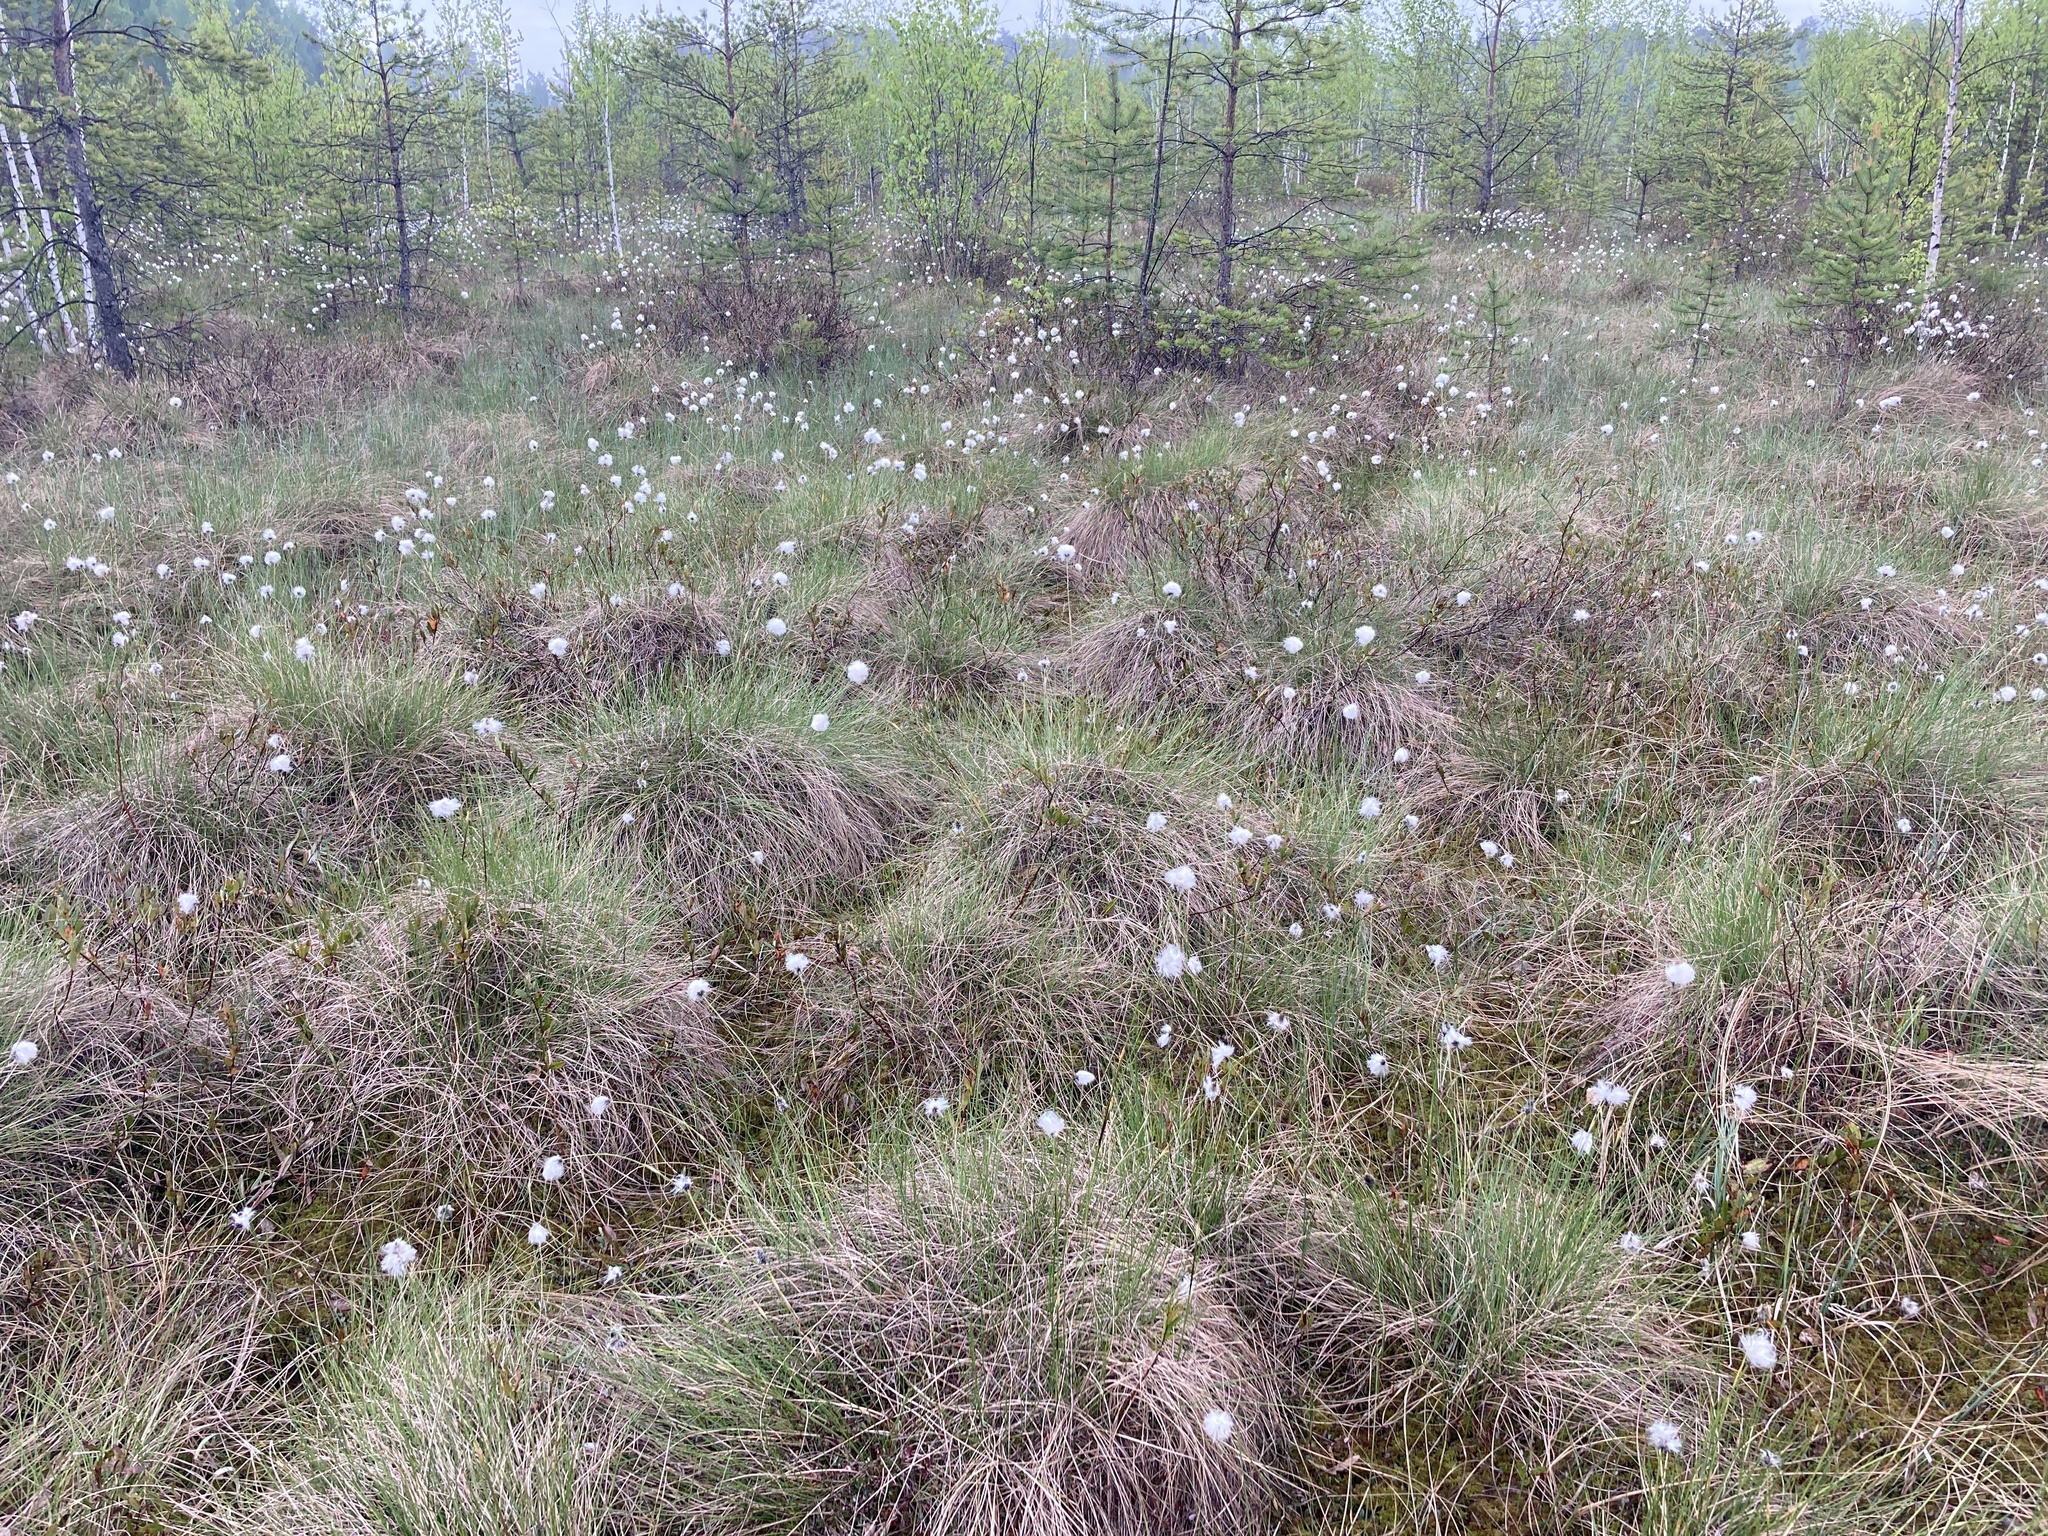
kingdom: Plantae
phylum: Tracheophyta
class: Liliopsida
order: Poales
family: Cyperaceae
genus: Eriophorum
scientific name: Eriophorum vaginatum
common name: Hare's-tail cottongrass
